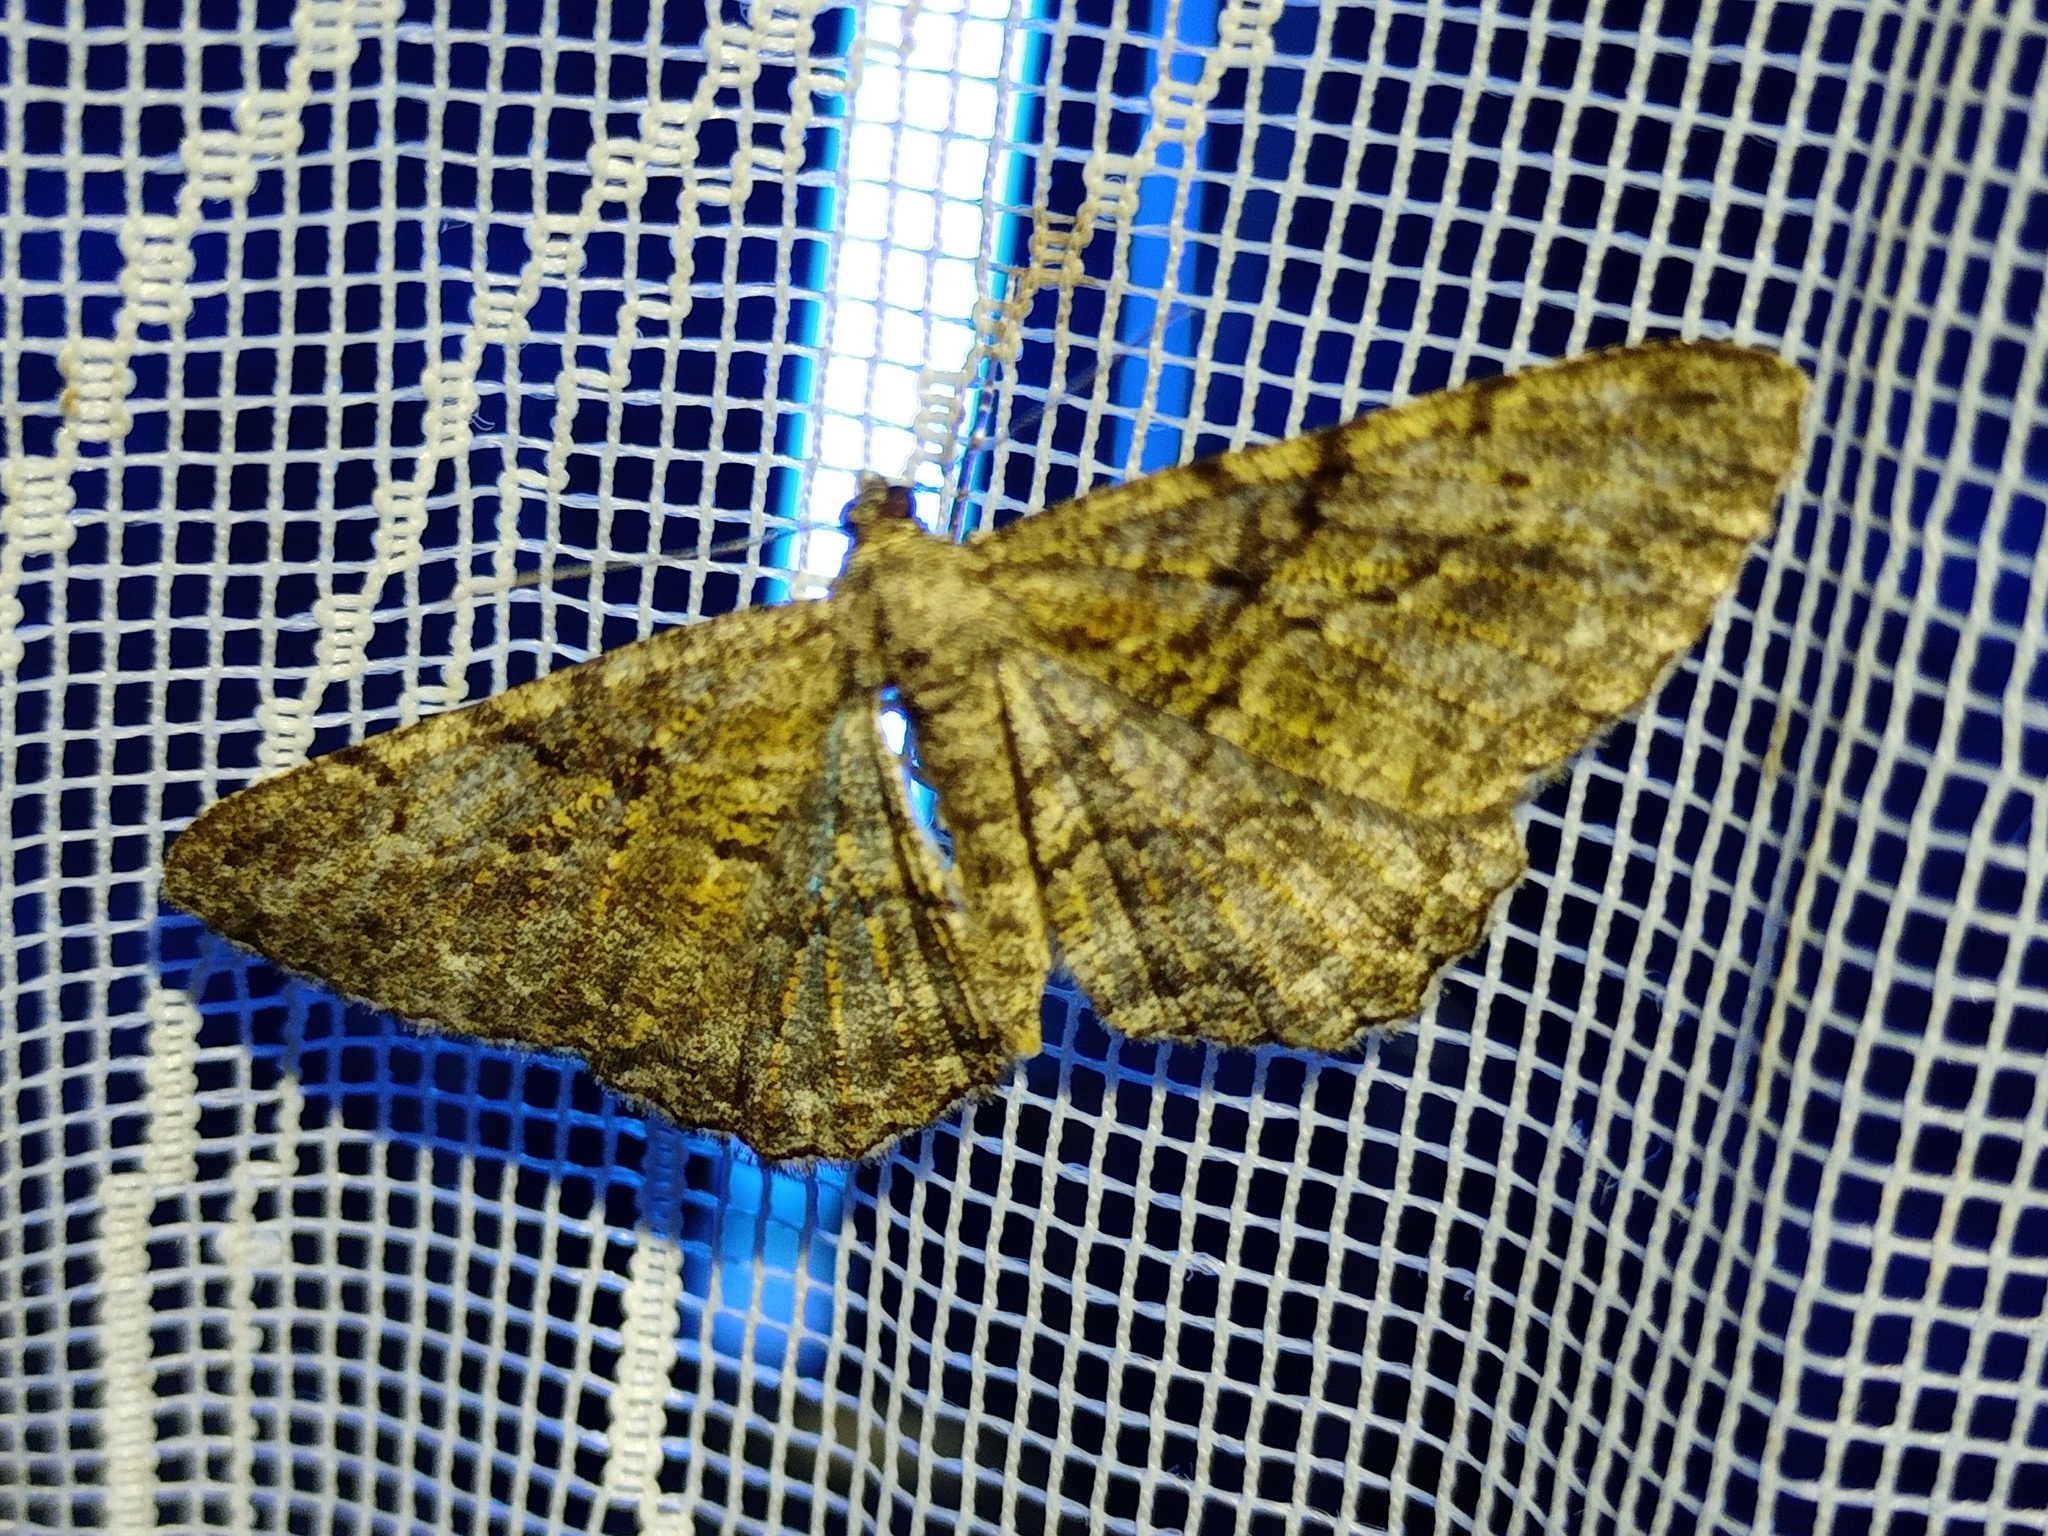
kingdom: Animalia
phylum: Arthropoda
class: Insecta
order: Lepidoptera
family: Geometridae
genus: Peribatodes
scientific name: Peribatodes rhomboidaria
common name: Willow beauty
